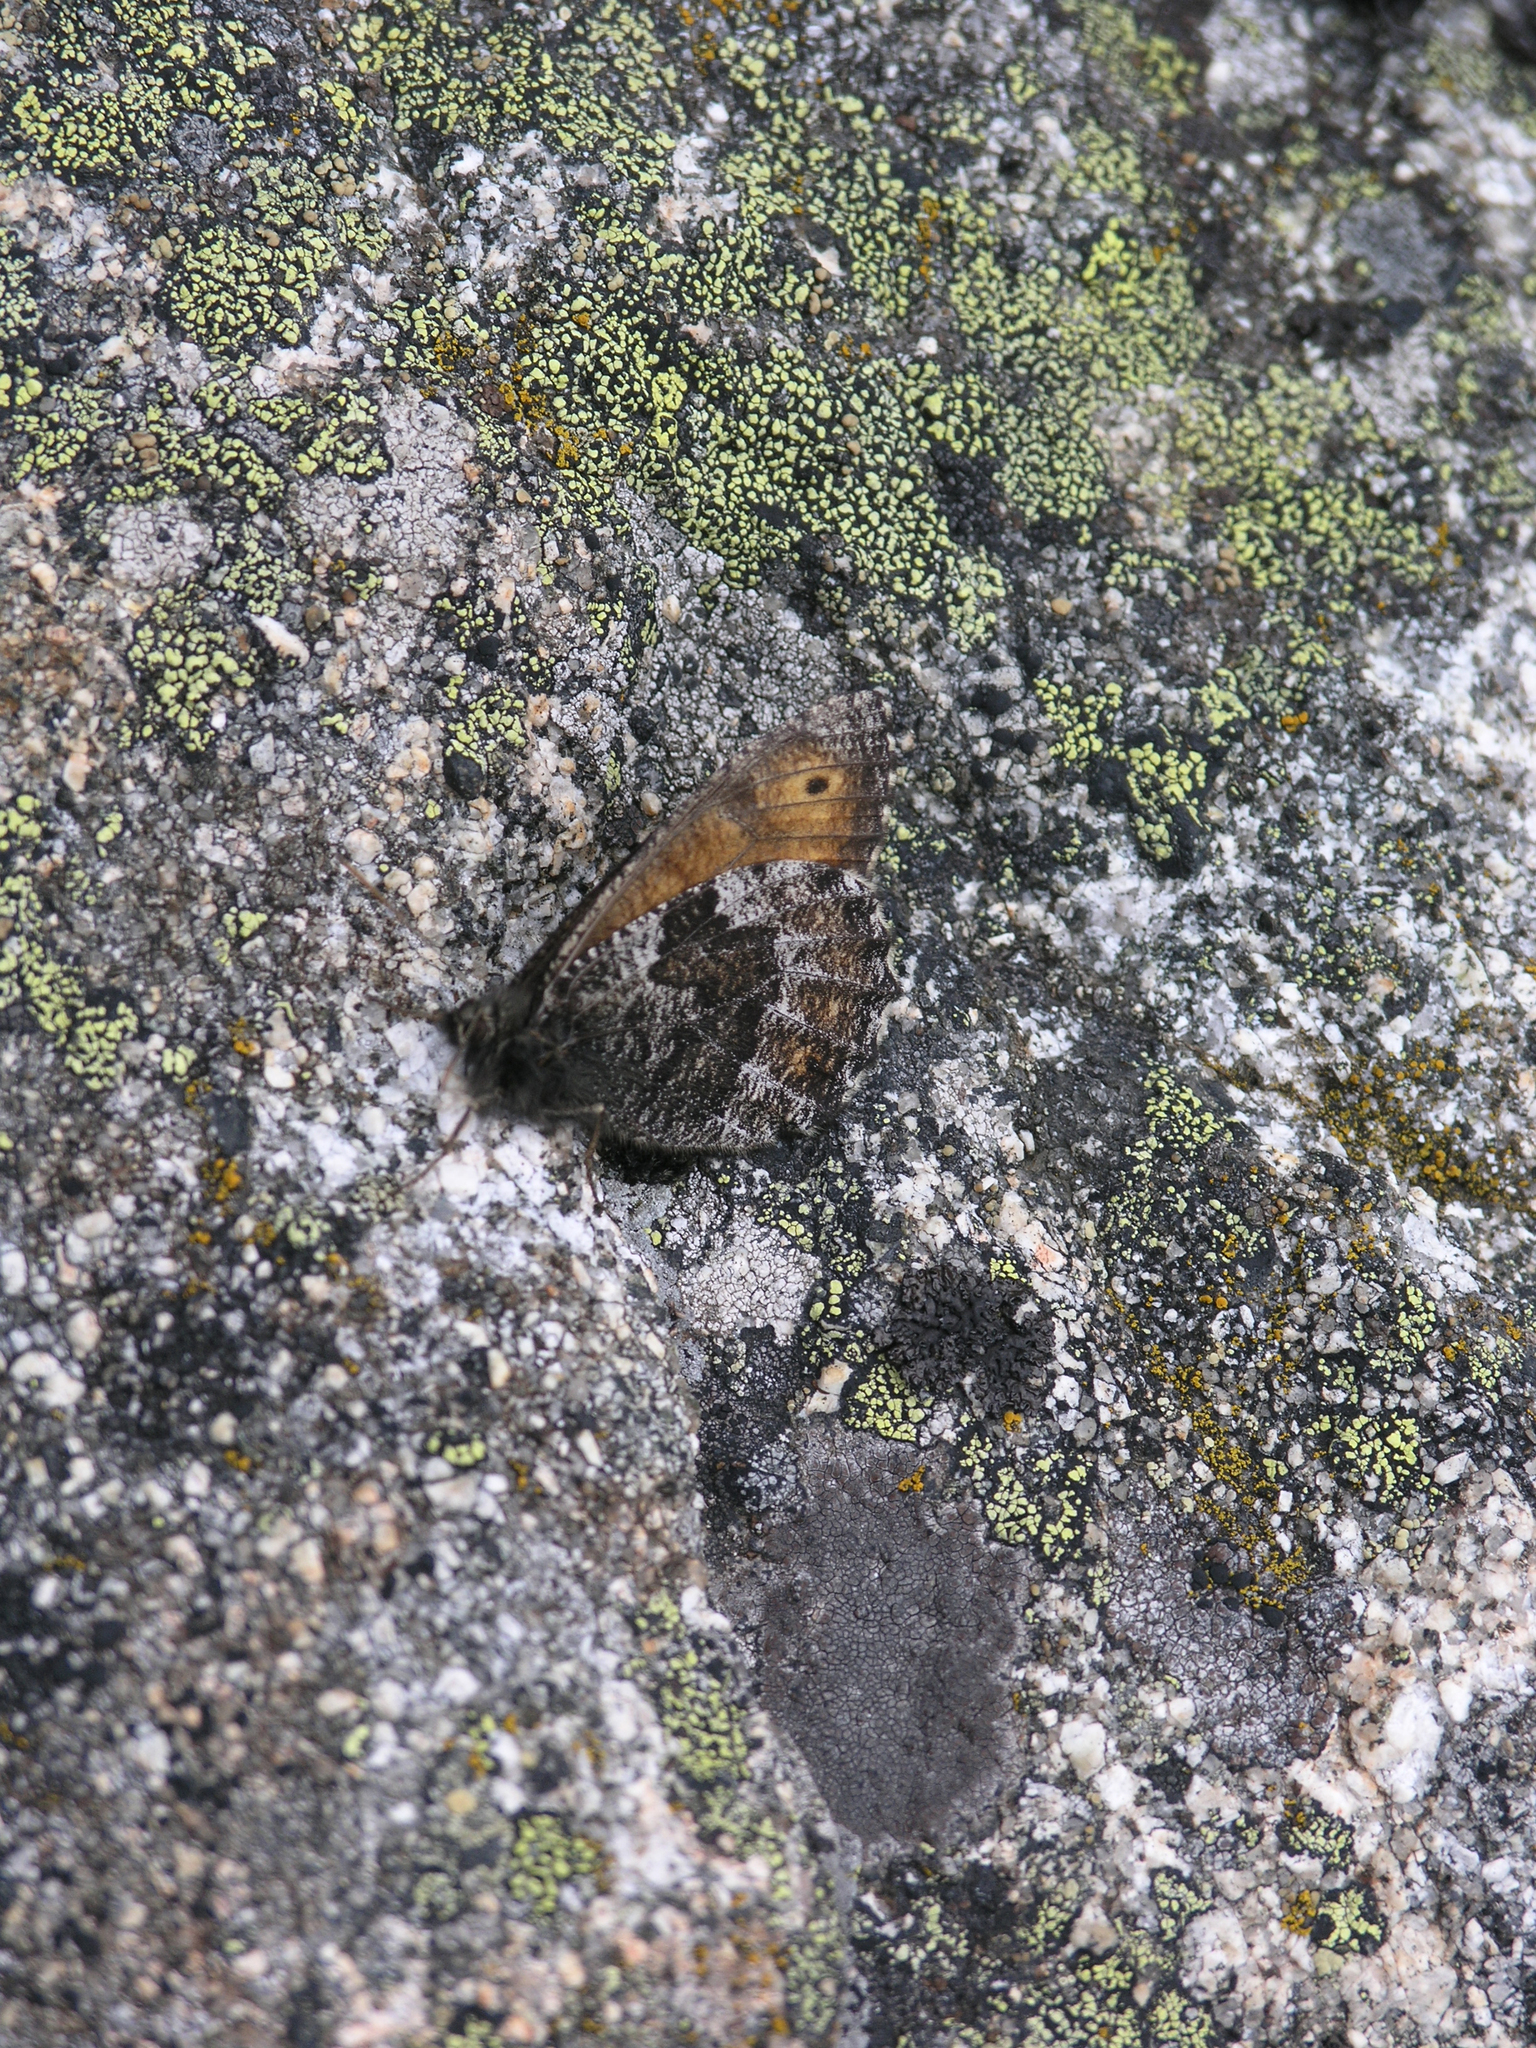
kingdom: Animalia
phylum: Arthropoda
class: Insecta
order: Lepidoptera
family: Nymphalidae
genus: Oeneis
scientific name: Oeneis jutta
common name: Baltic grayling
